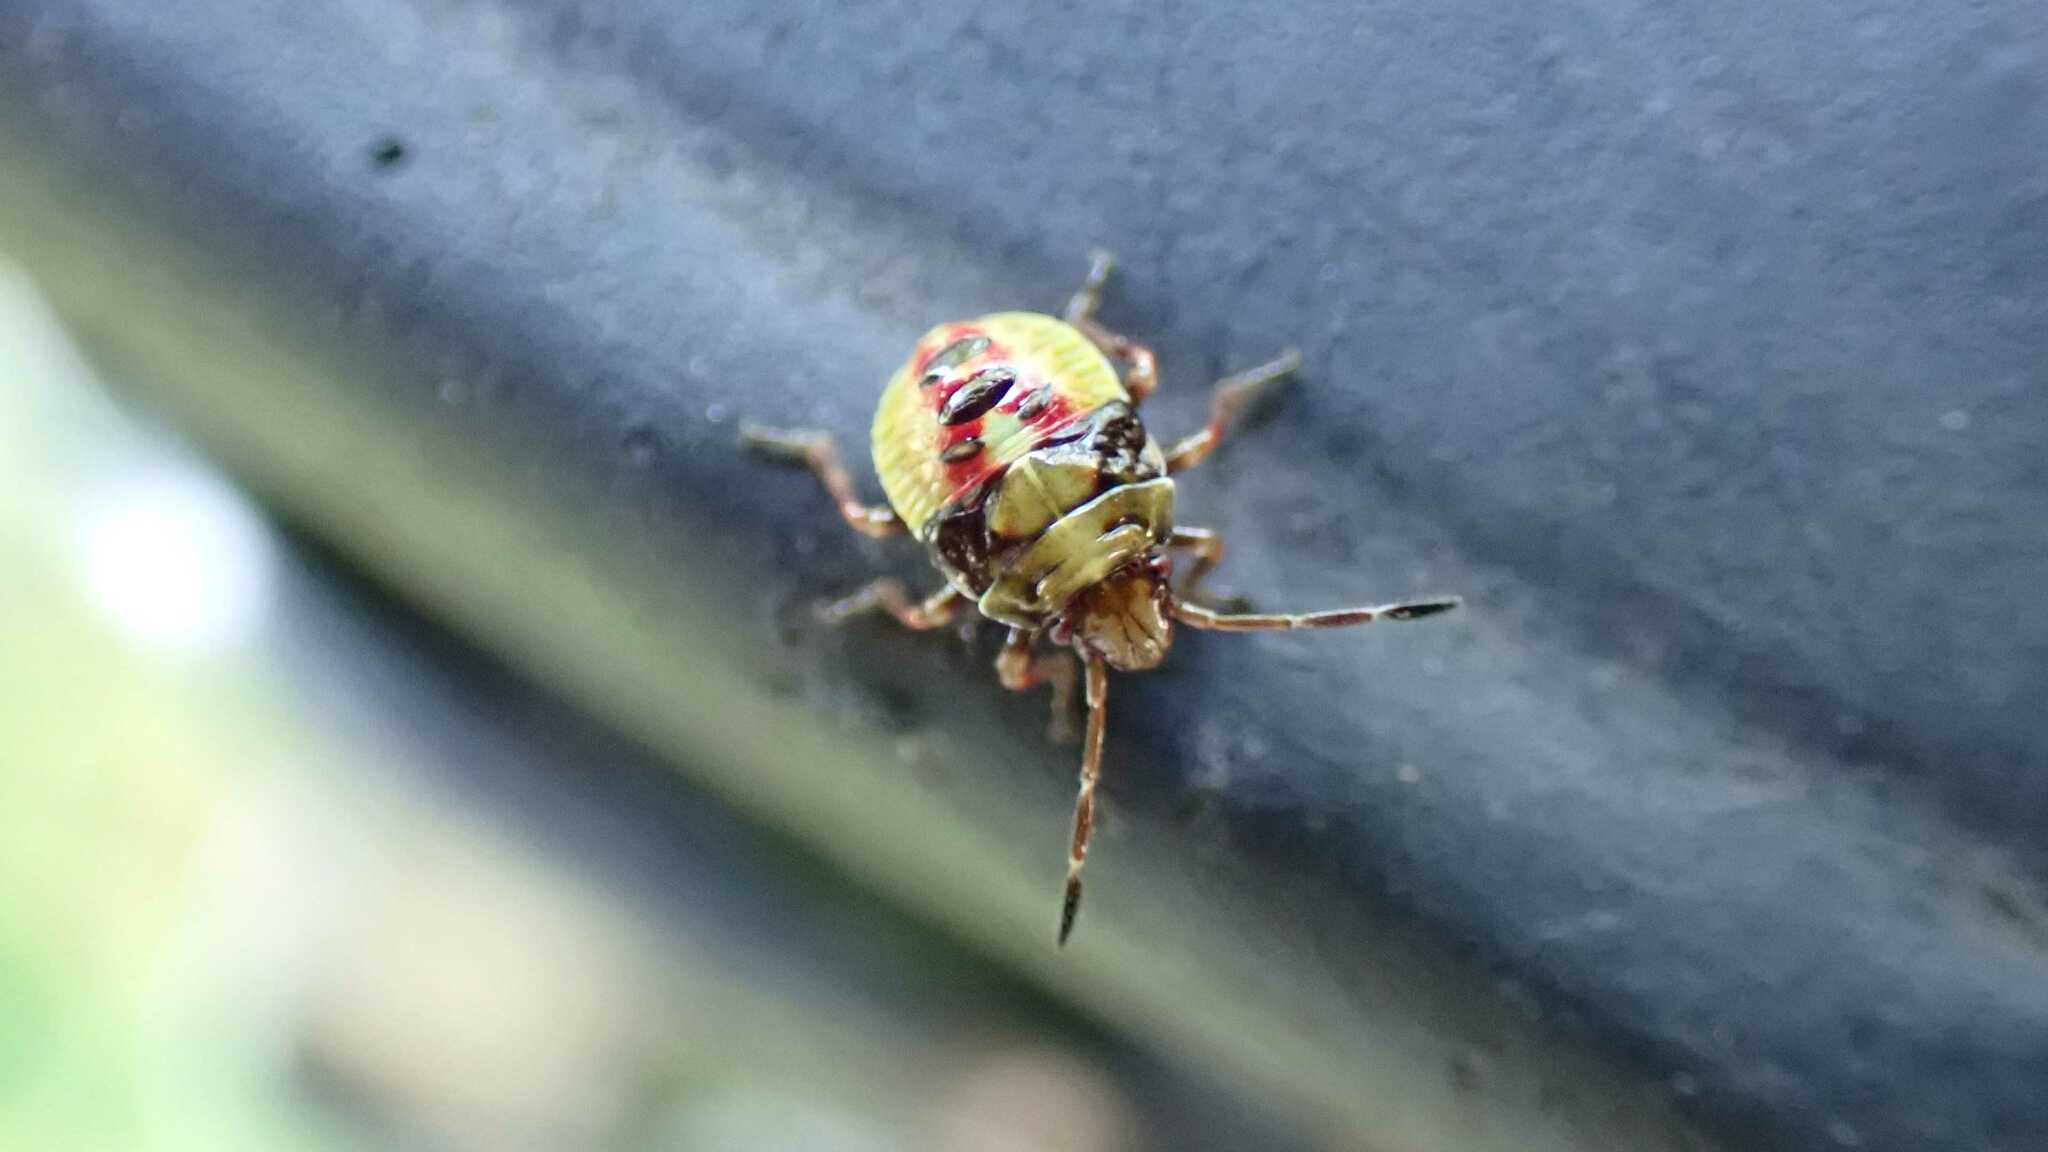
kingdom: Animalia
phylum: Arthropoda
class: Insecta
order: Hemiptera
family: Acanthosomatidae
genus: Elasmostethus
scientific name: Elasmostethus
